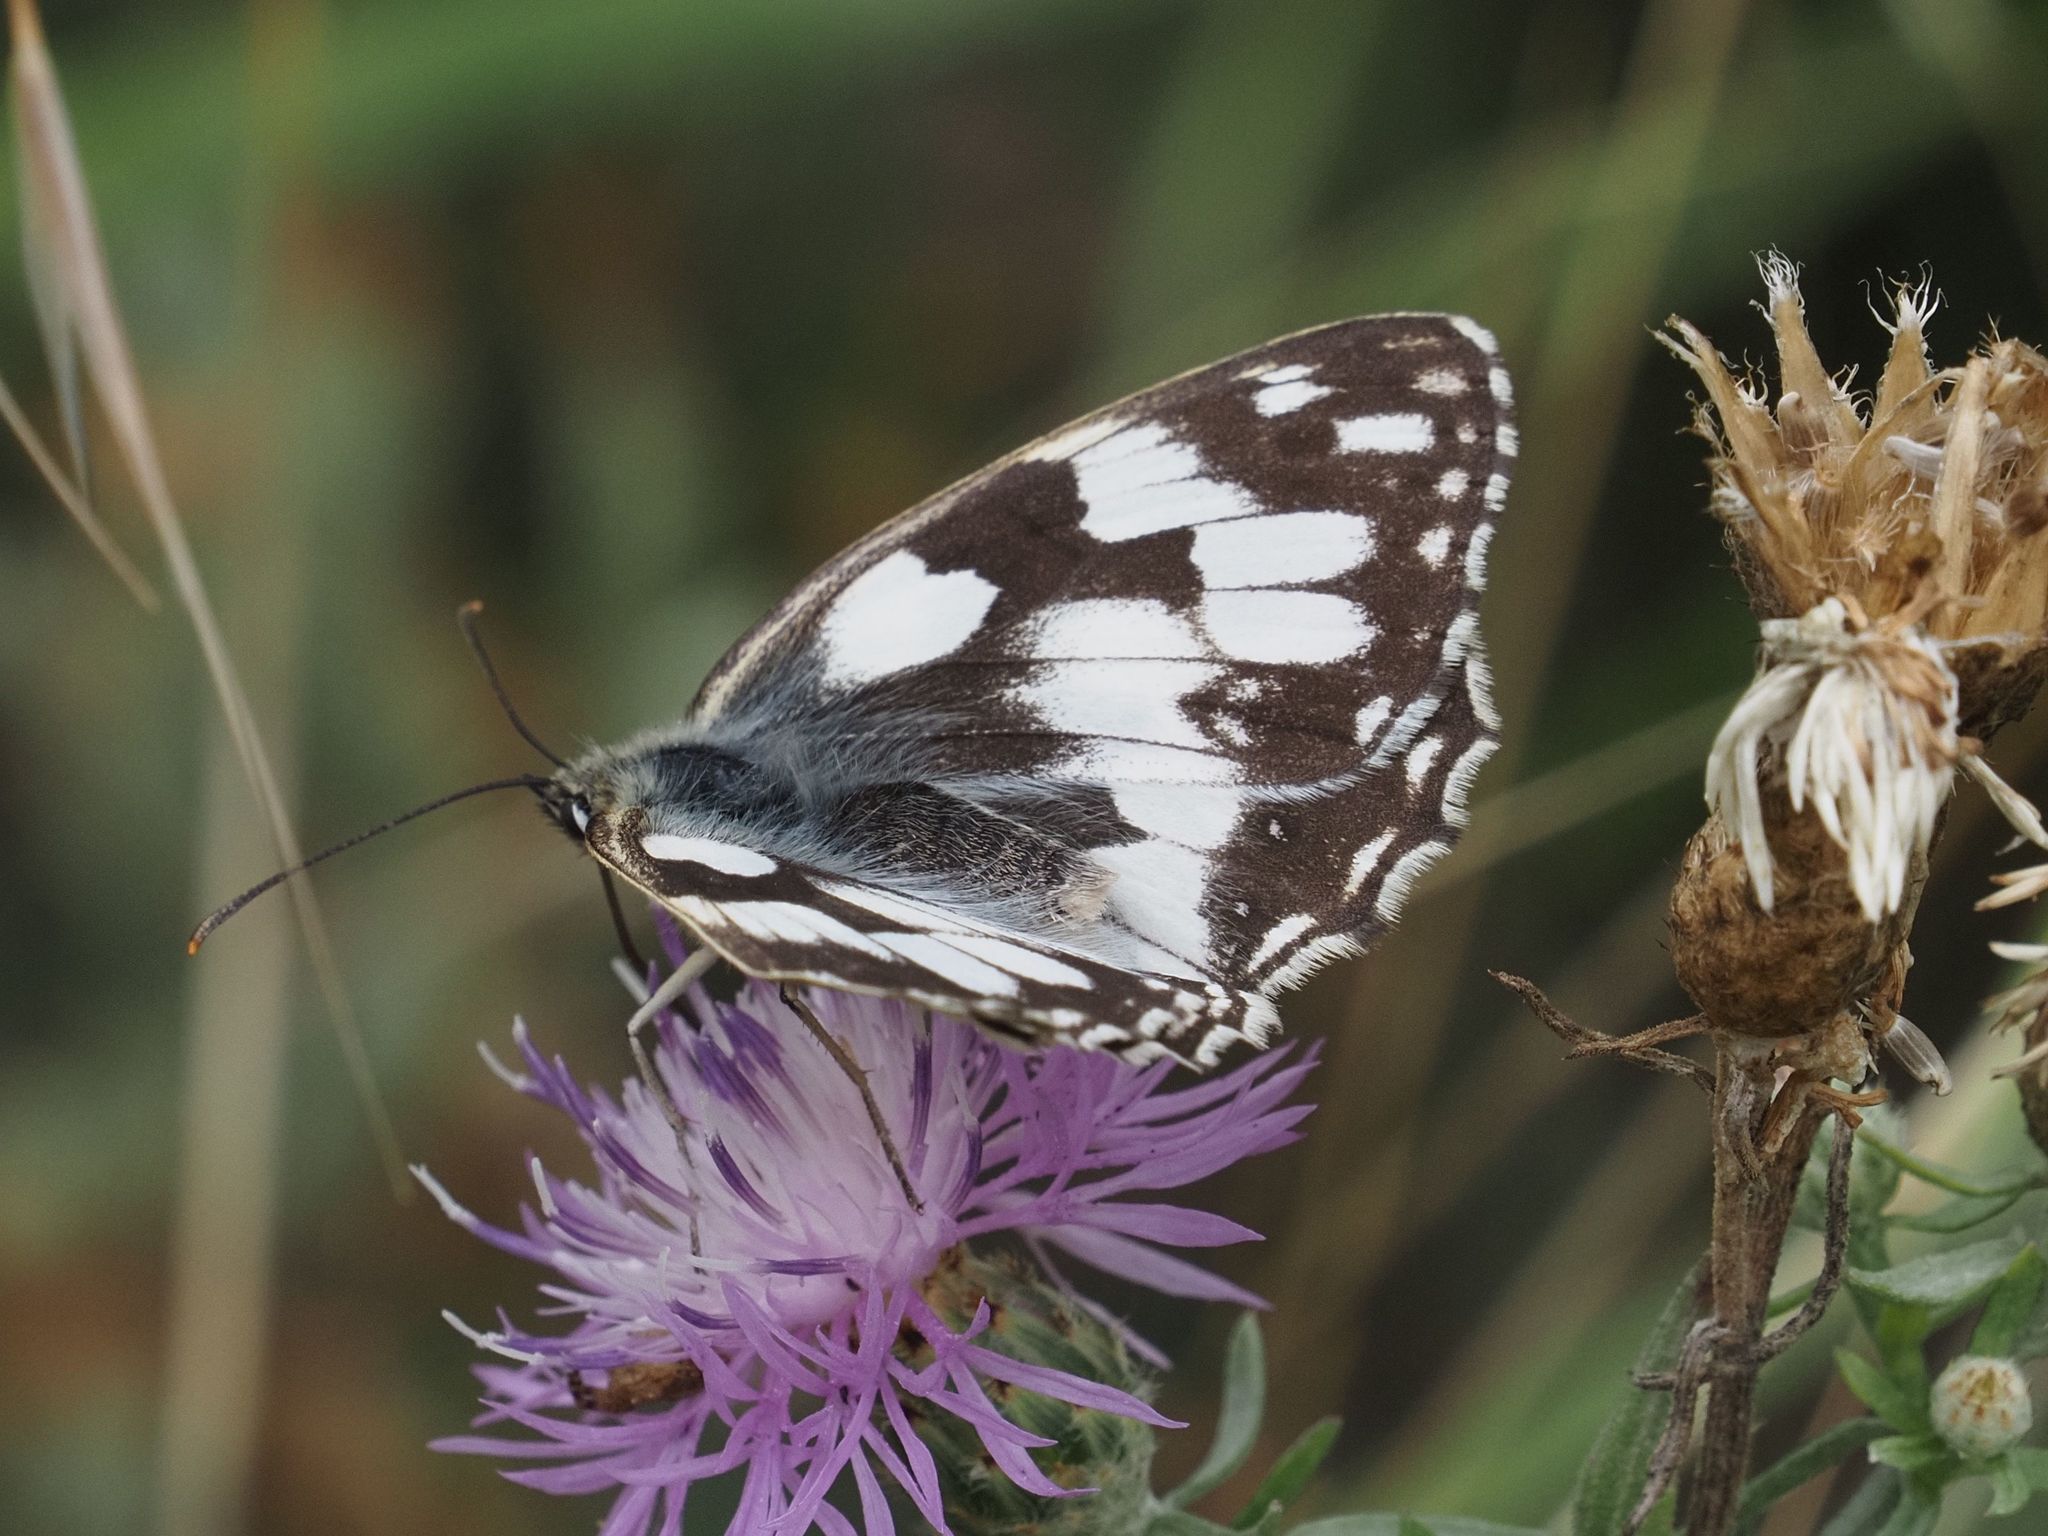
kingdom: Animalia
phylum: Arthropoda
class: Insecta
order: Lepidoptera
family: Nymphalidae
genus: Melanargia
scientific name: Melanargia galathea
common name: Marbled white
